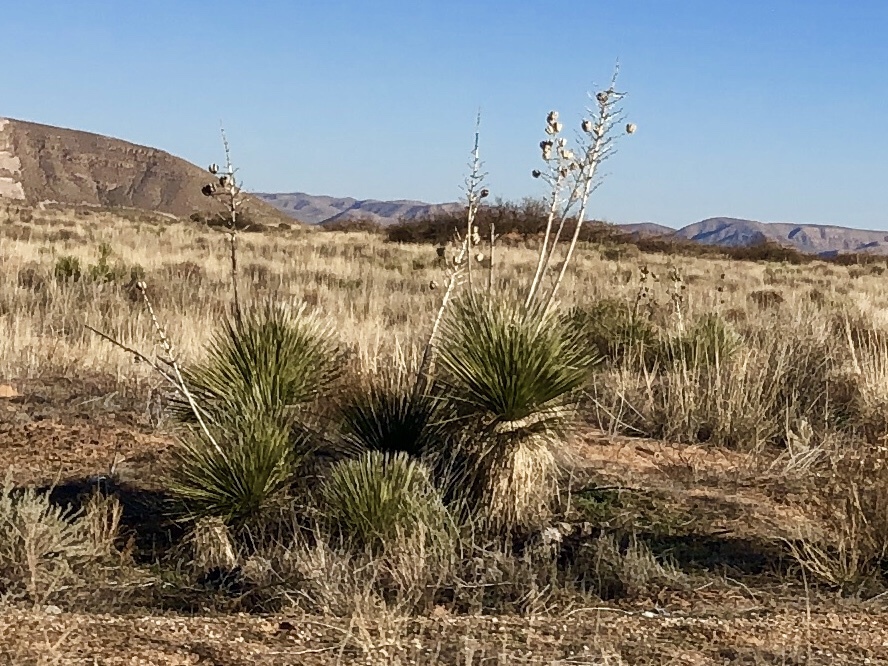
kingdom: Plantae
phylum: Tracheophyta
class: Liliopsida
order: Asparagales
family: Asparagaceae
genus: Yucca
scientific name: Yucca elata
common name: Palmella
